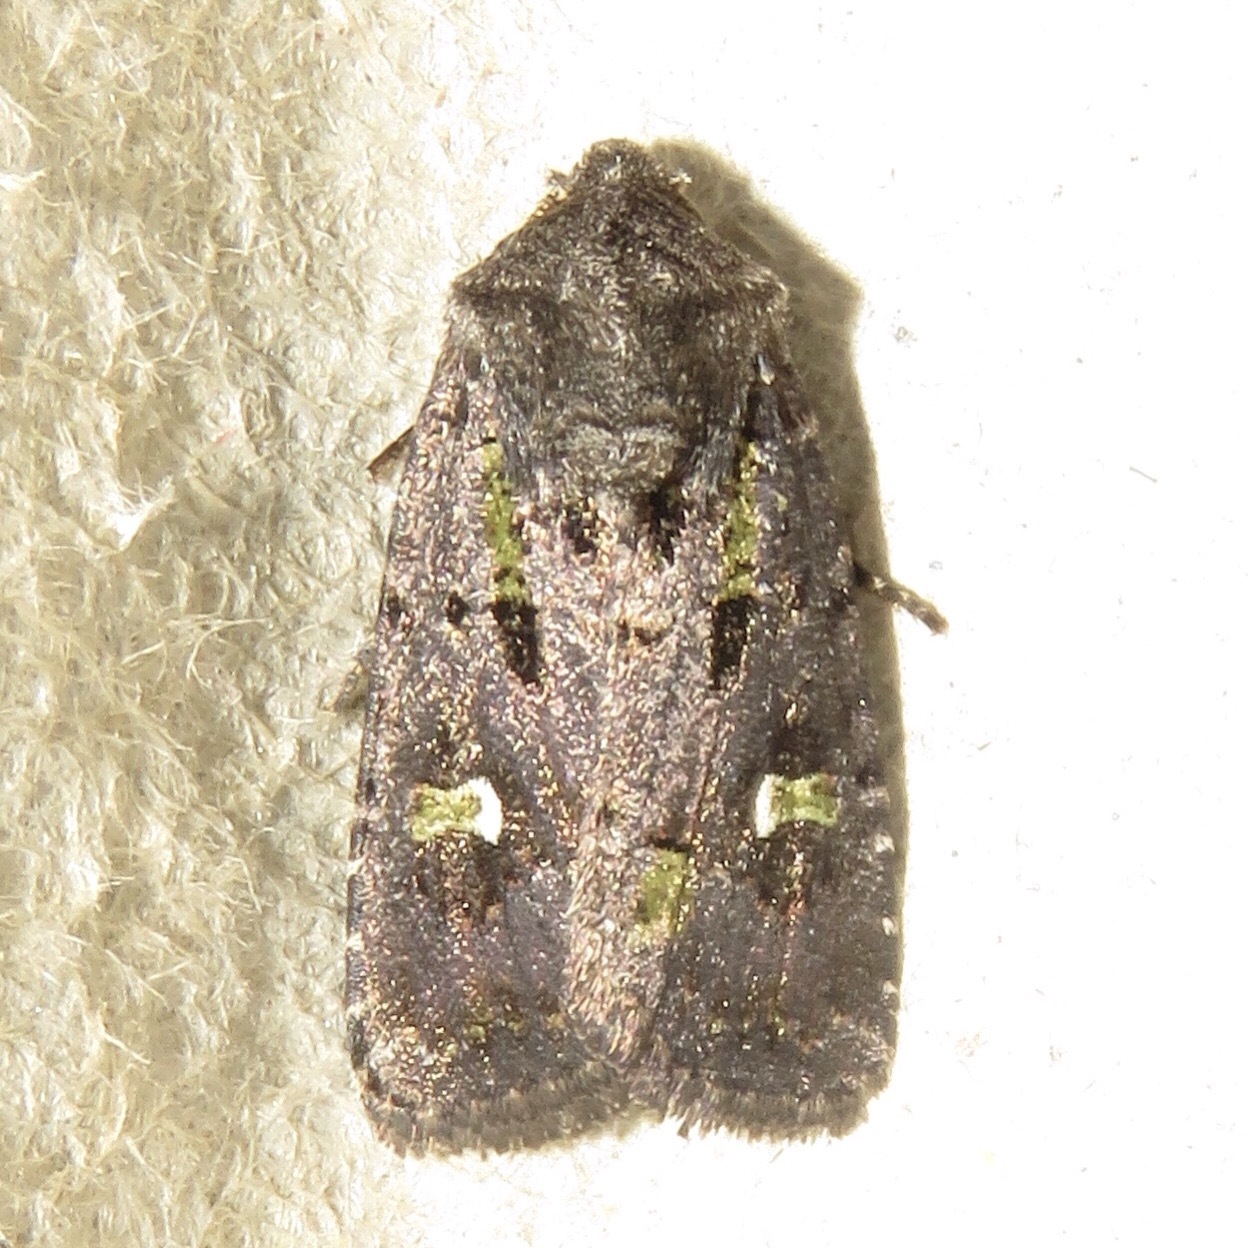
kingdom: Animalia
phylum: Arthropoda
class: Insecta
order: Lepidoptera
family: Noctuidae
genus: Lacinipolia
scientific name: Lacinipolia renigera
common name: Kidney-spotted minor
